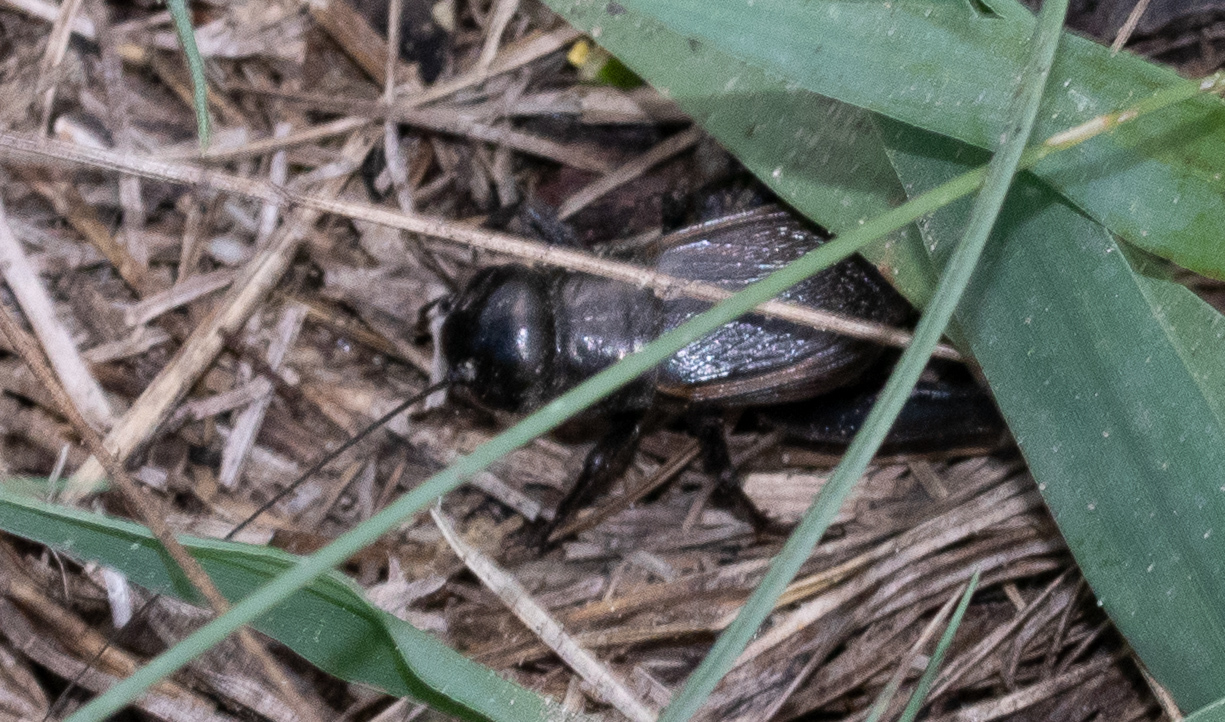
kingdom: Animalia
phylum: Arthropoda
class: Insecta
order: Orthoptera
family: Gryllidae
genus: Gryllus
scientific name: Gryllus pennsylvanicus
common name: Fall field cricket
